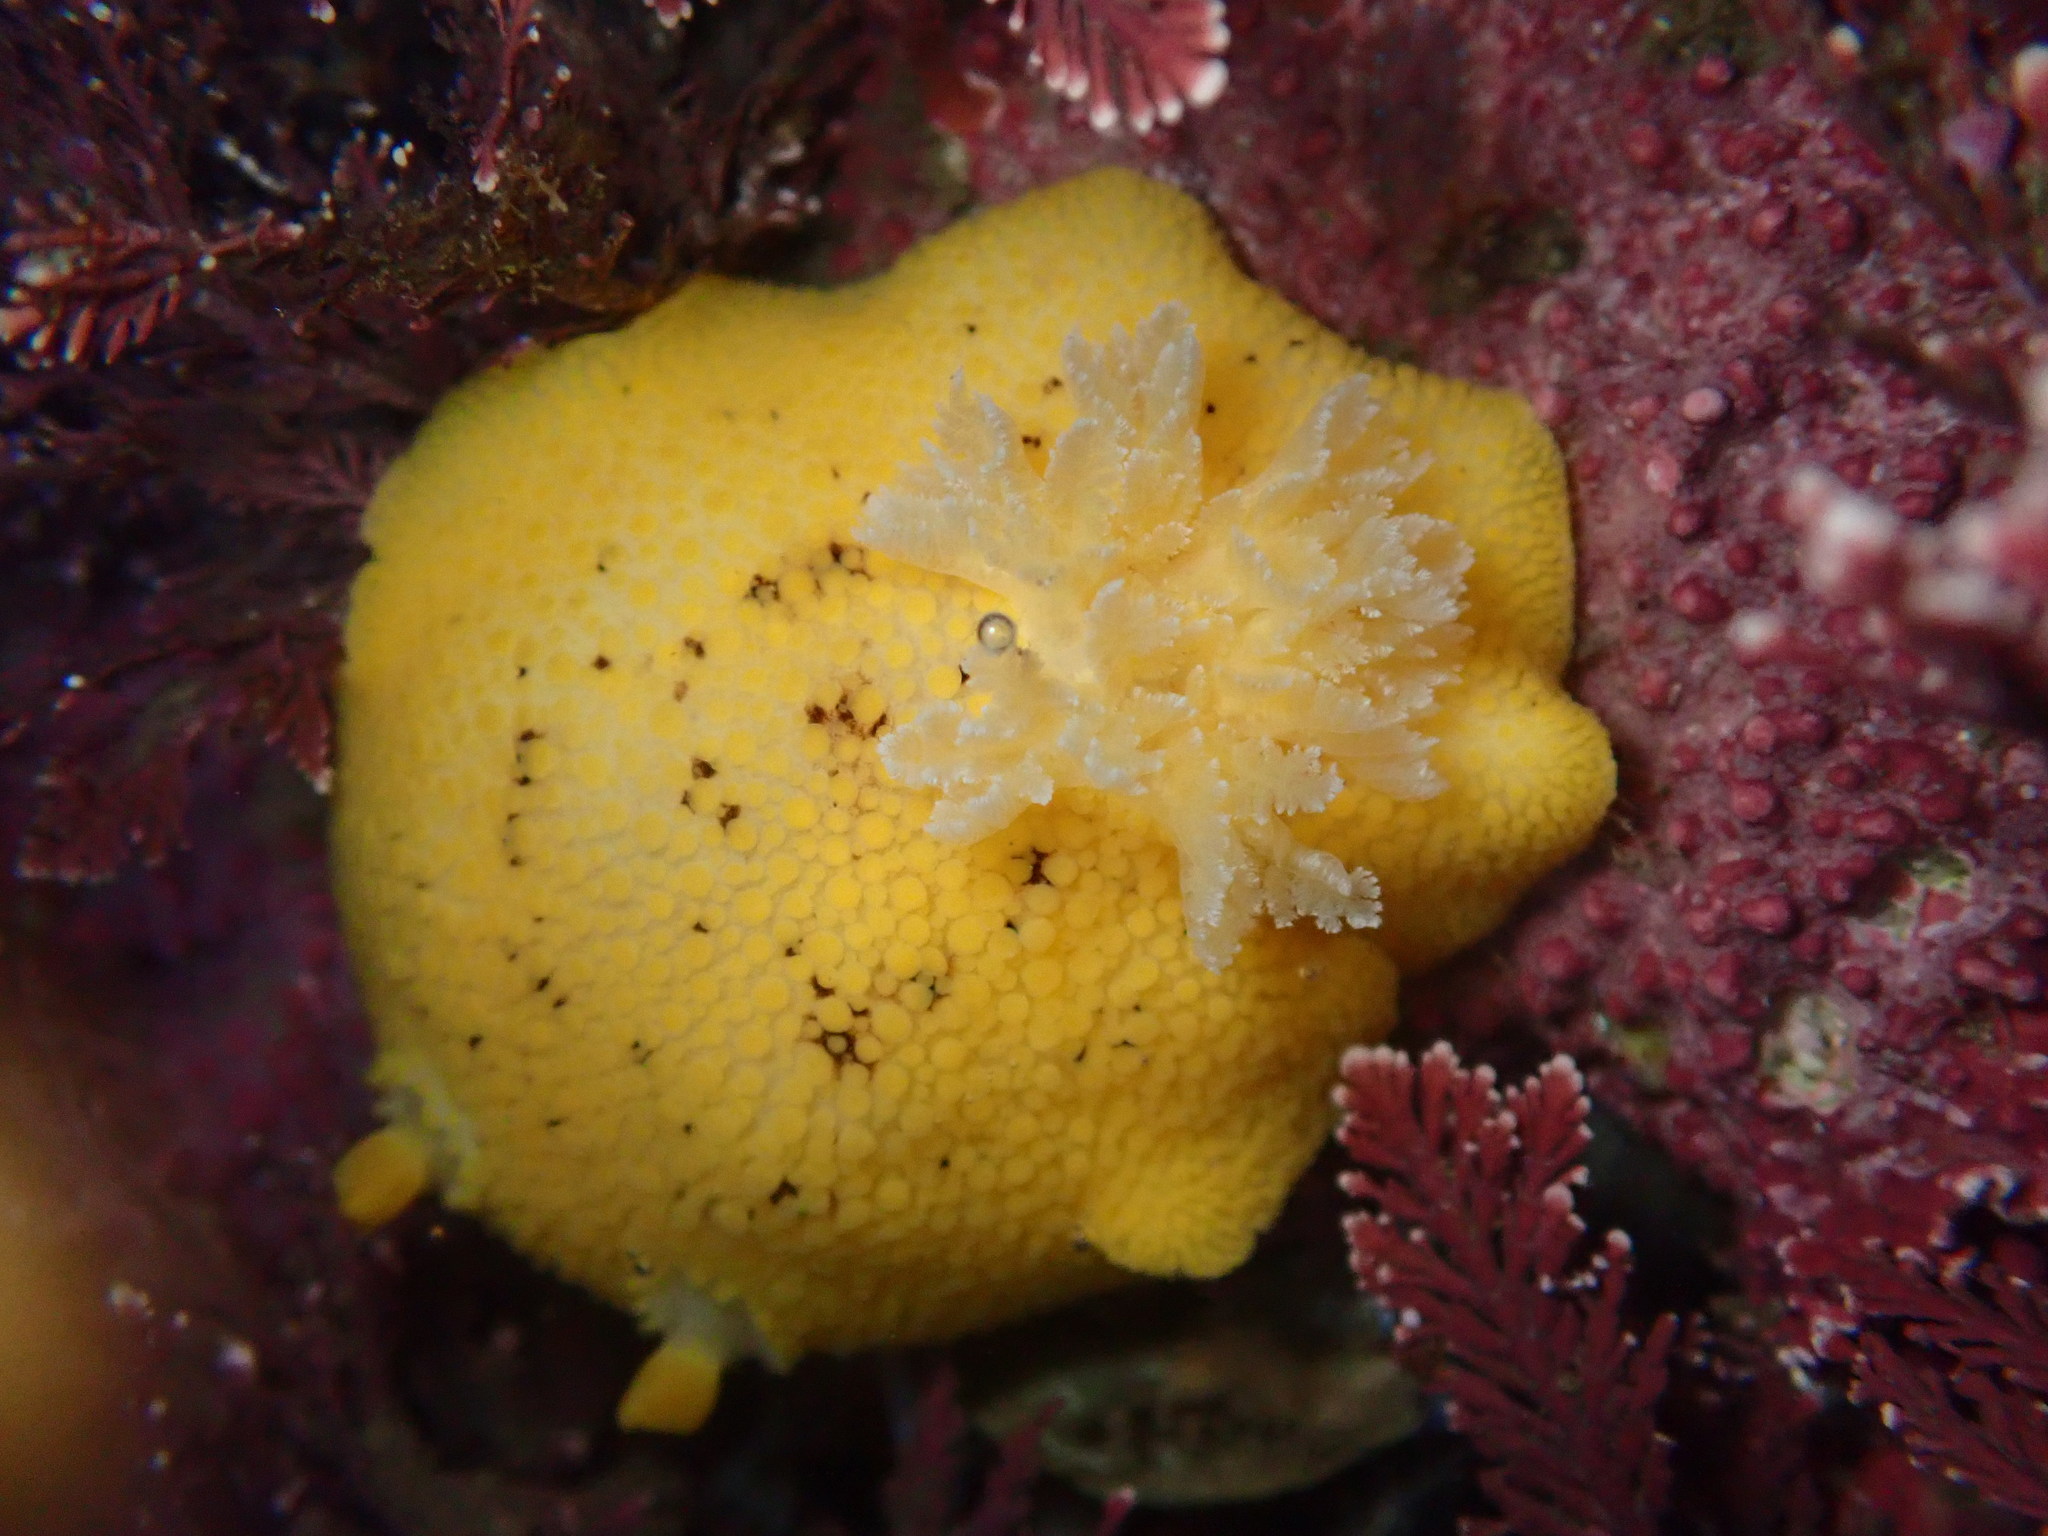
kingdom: Animalia
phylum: Mollusca
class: Gastropoda
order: Nudibranchia
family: Discodorididae
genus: Peltodoris
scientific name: Peltodoris nobilis
